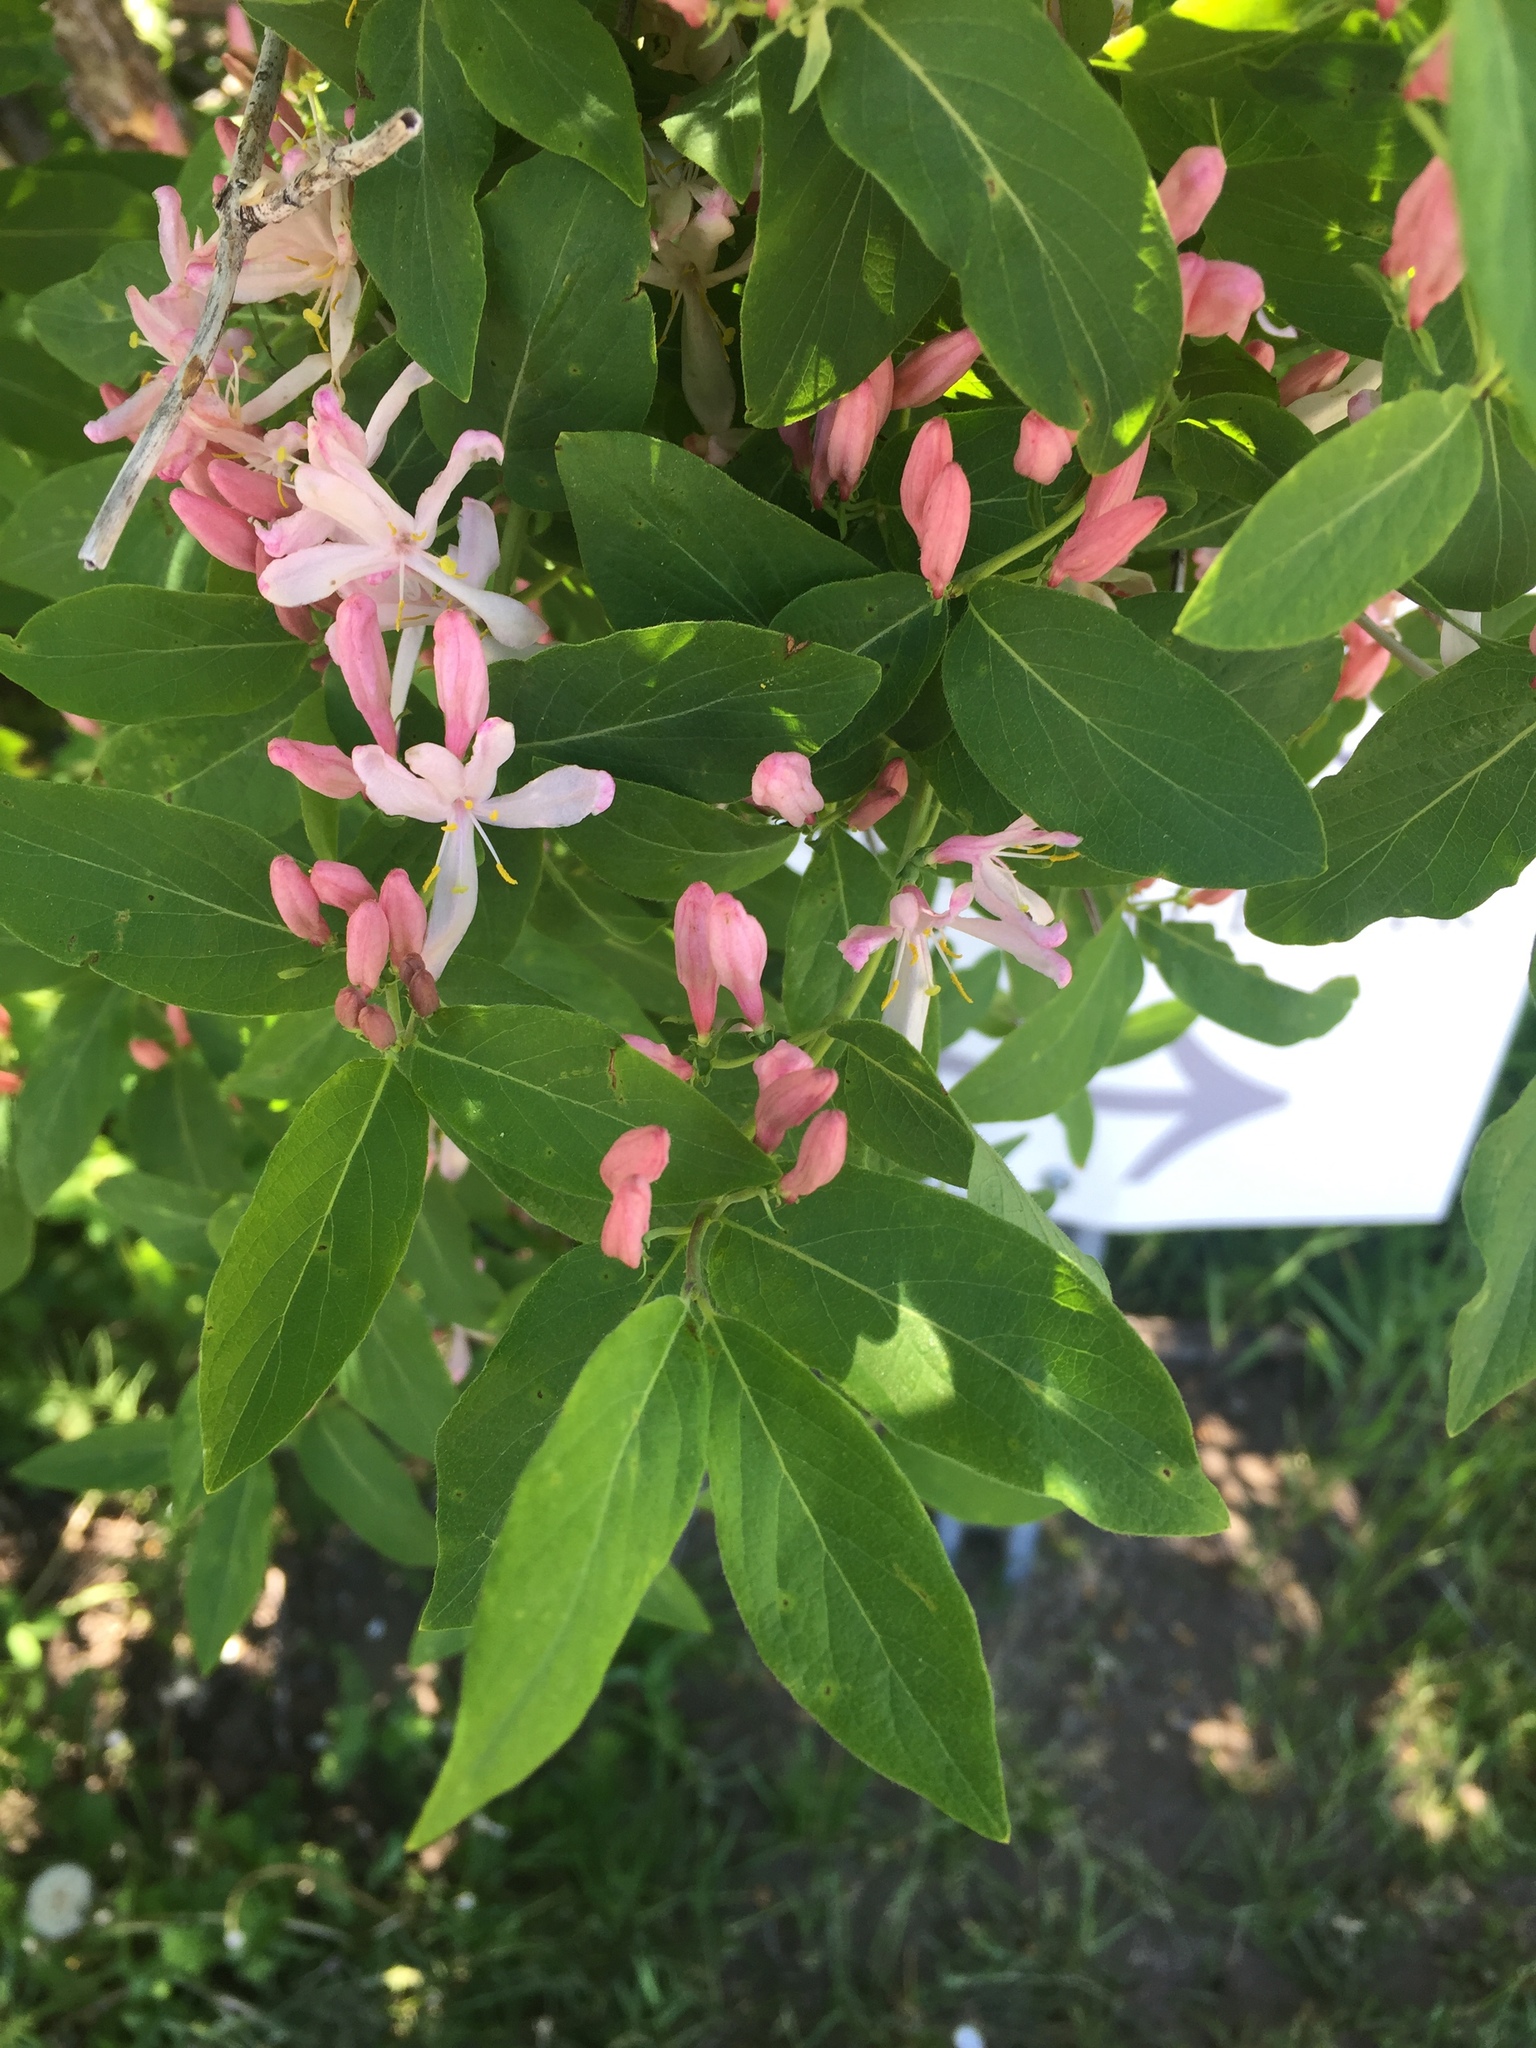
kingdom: Plantae
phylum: Tracheophyta
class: Magnoliopsida
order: Dipsacales
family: Caprifoliaceae
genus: Lonicera
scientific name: Lonicera tatarica
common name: Tatarian honeysuckle
